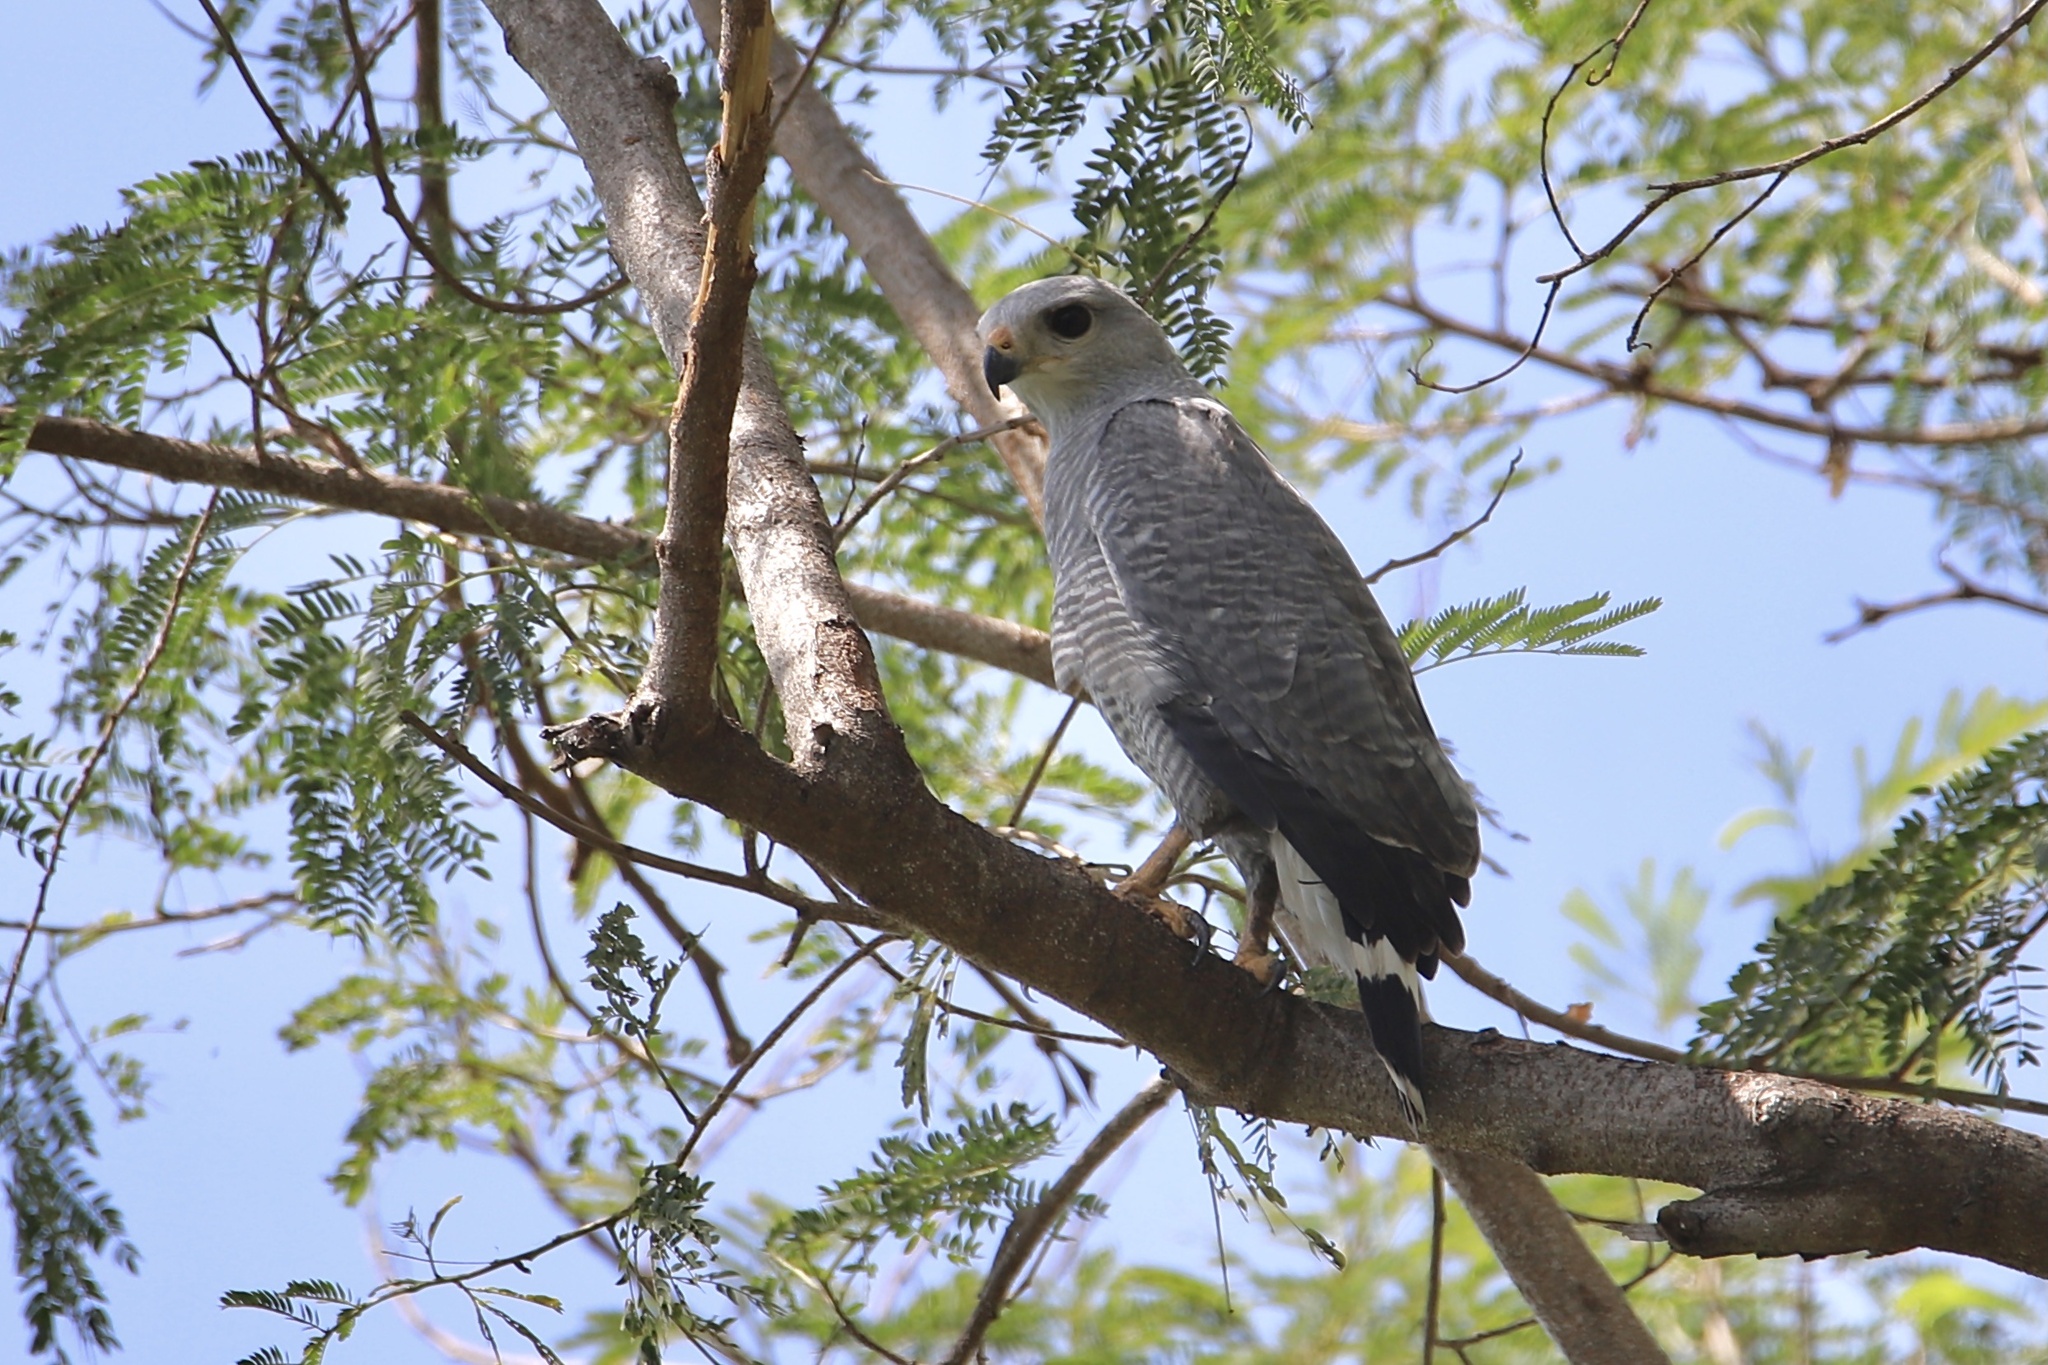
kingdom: Animalia
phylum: Chordata
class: Aves
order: Accipitriformes
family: Accipitridae
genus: Buteo
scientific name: Buteo nitidus
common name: Grey-lined hawk
